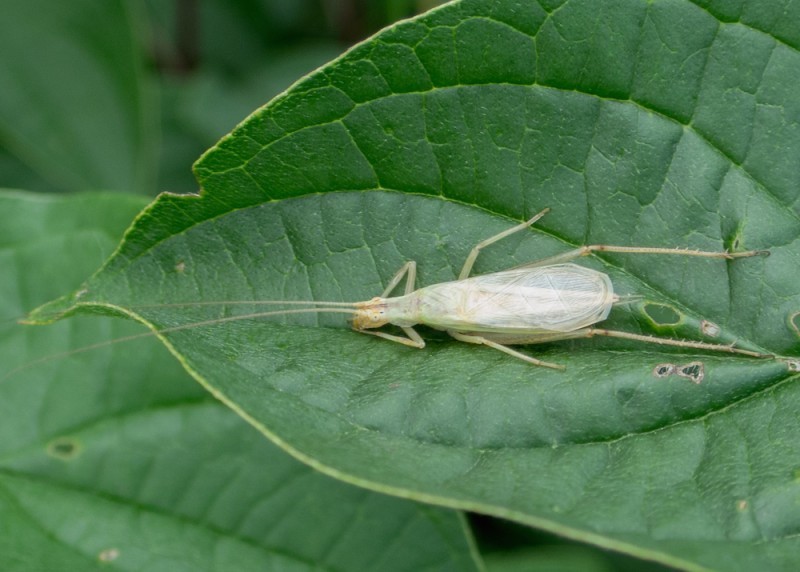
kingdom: Animalia
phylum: Arthropoda
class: Insecta
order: Orthoptera
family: Gryllidae
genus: Oecanthus
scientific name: Oecanthus pellucens
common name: Tree-cricket
